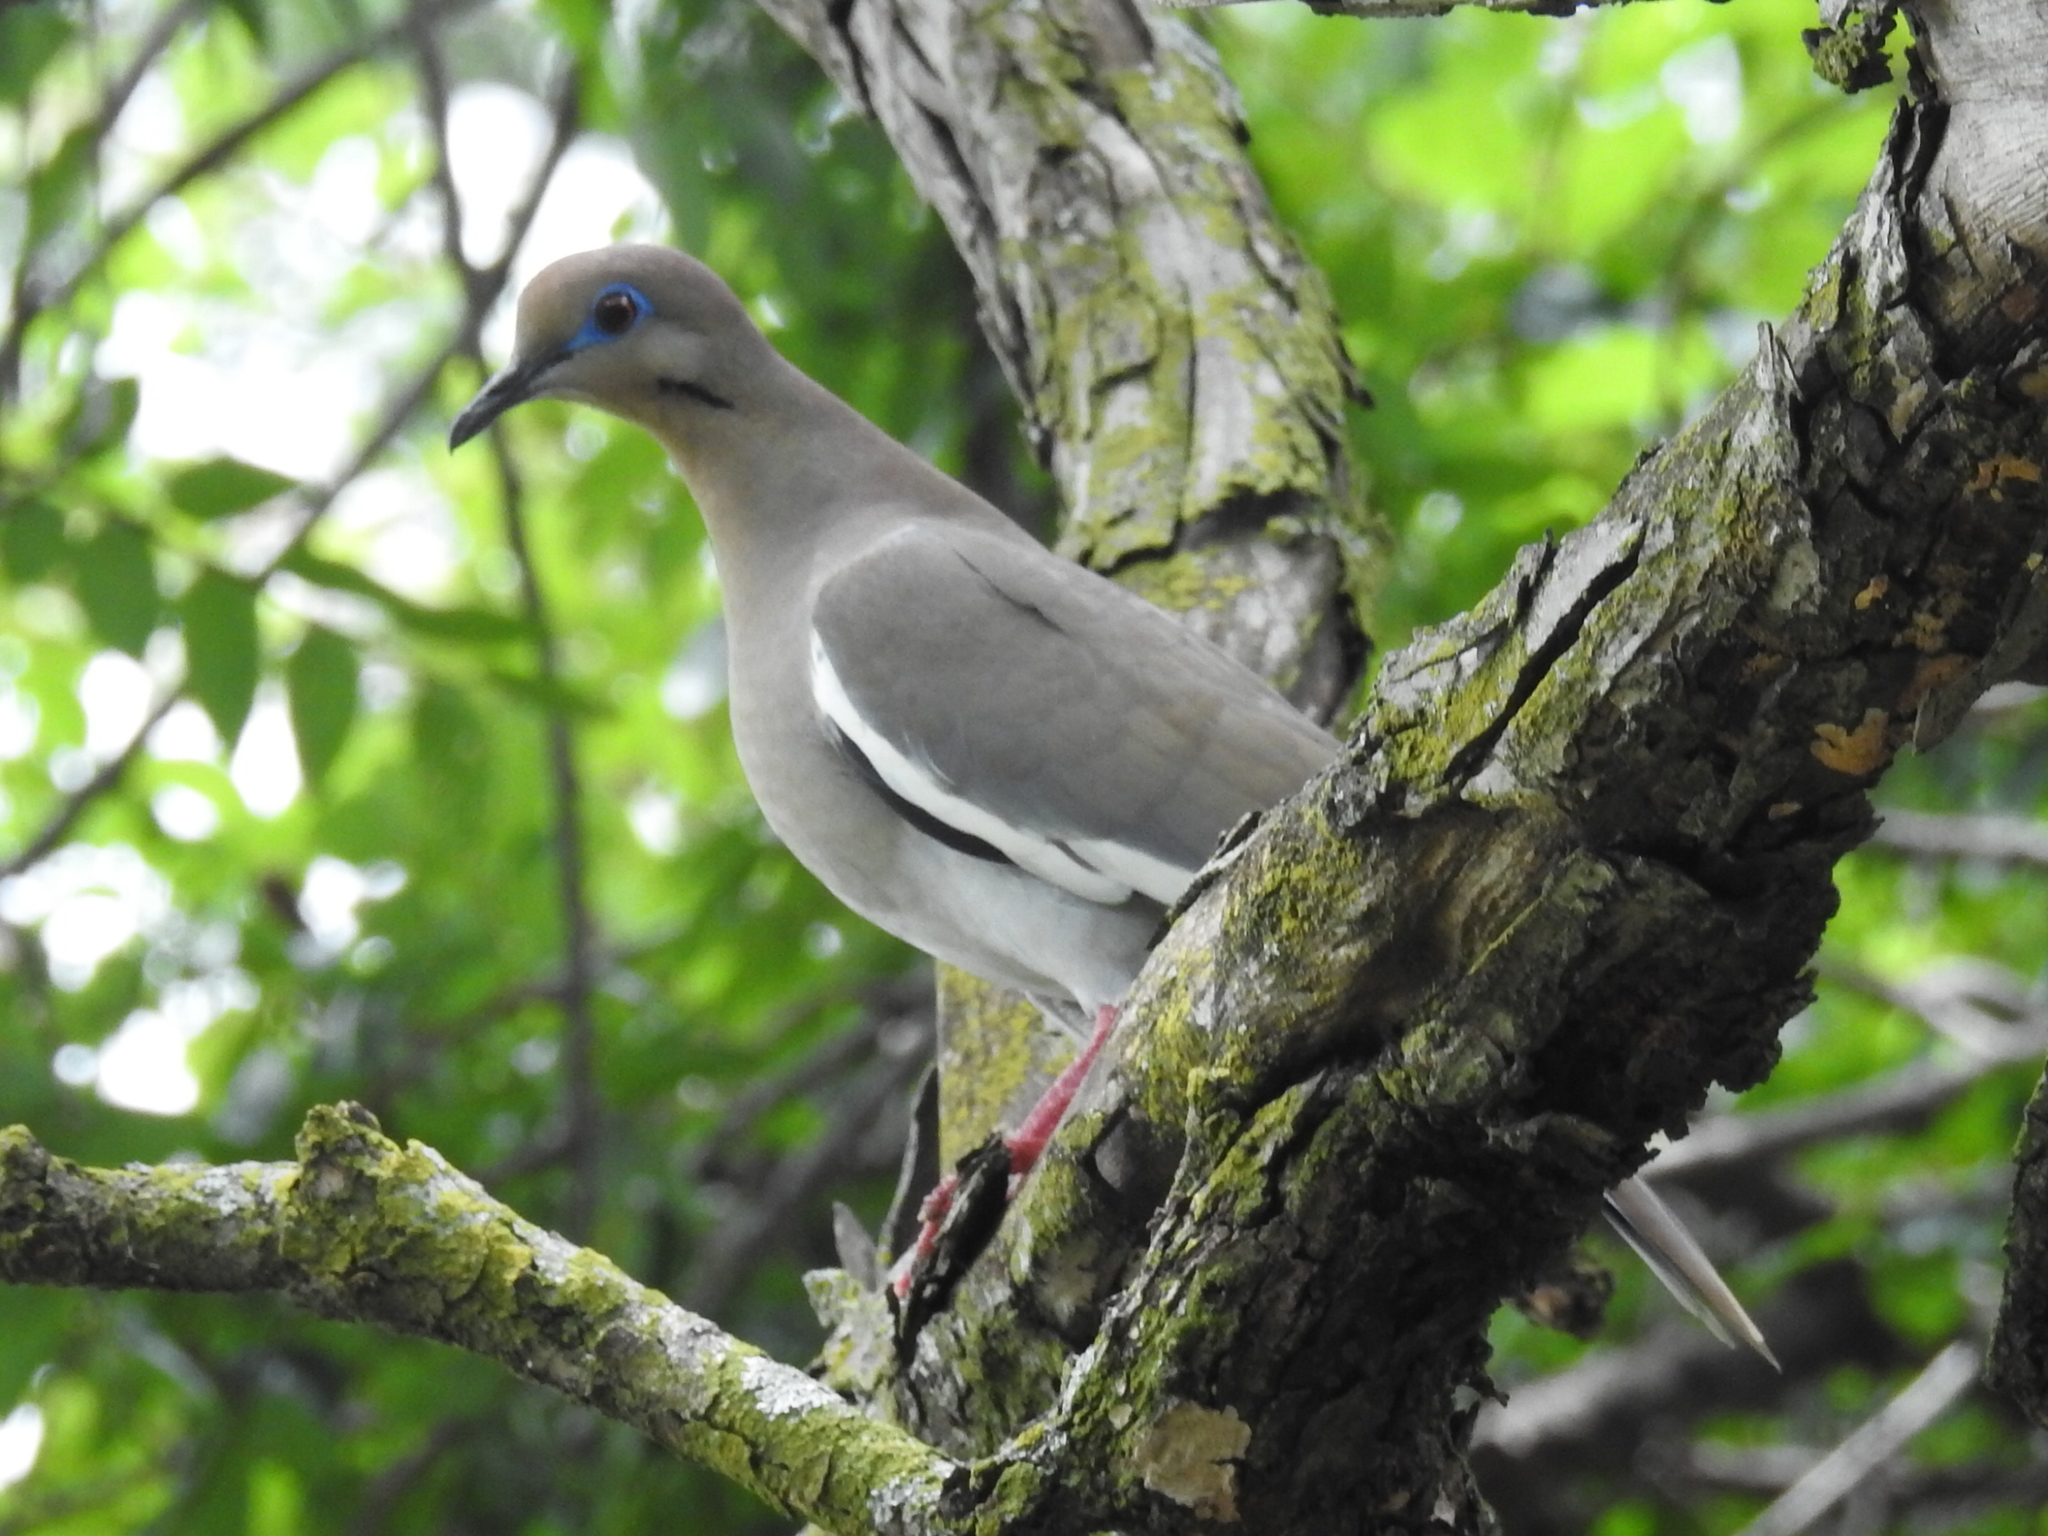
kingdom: Animalia
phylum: Chordata
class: Aves
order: Columbiformes
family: Columbidae
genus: Zenaida
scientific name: Zenaida asiatica
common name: White-winged dove
